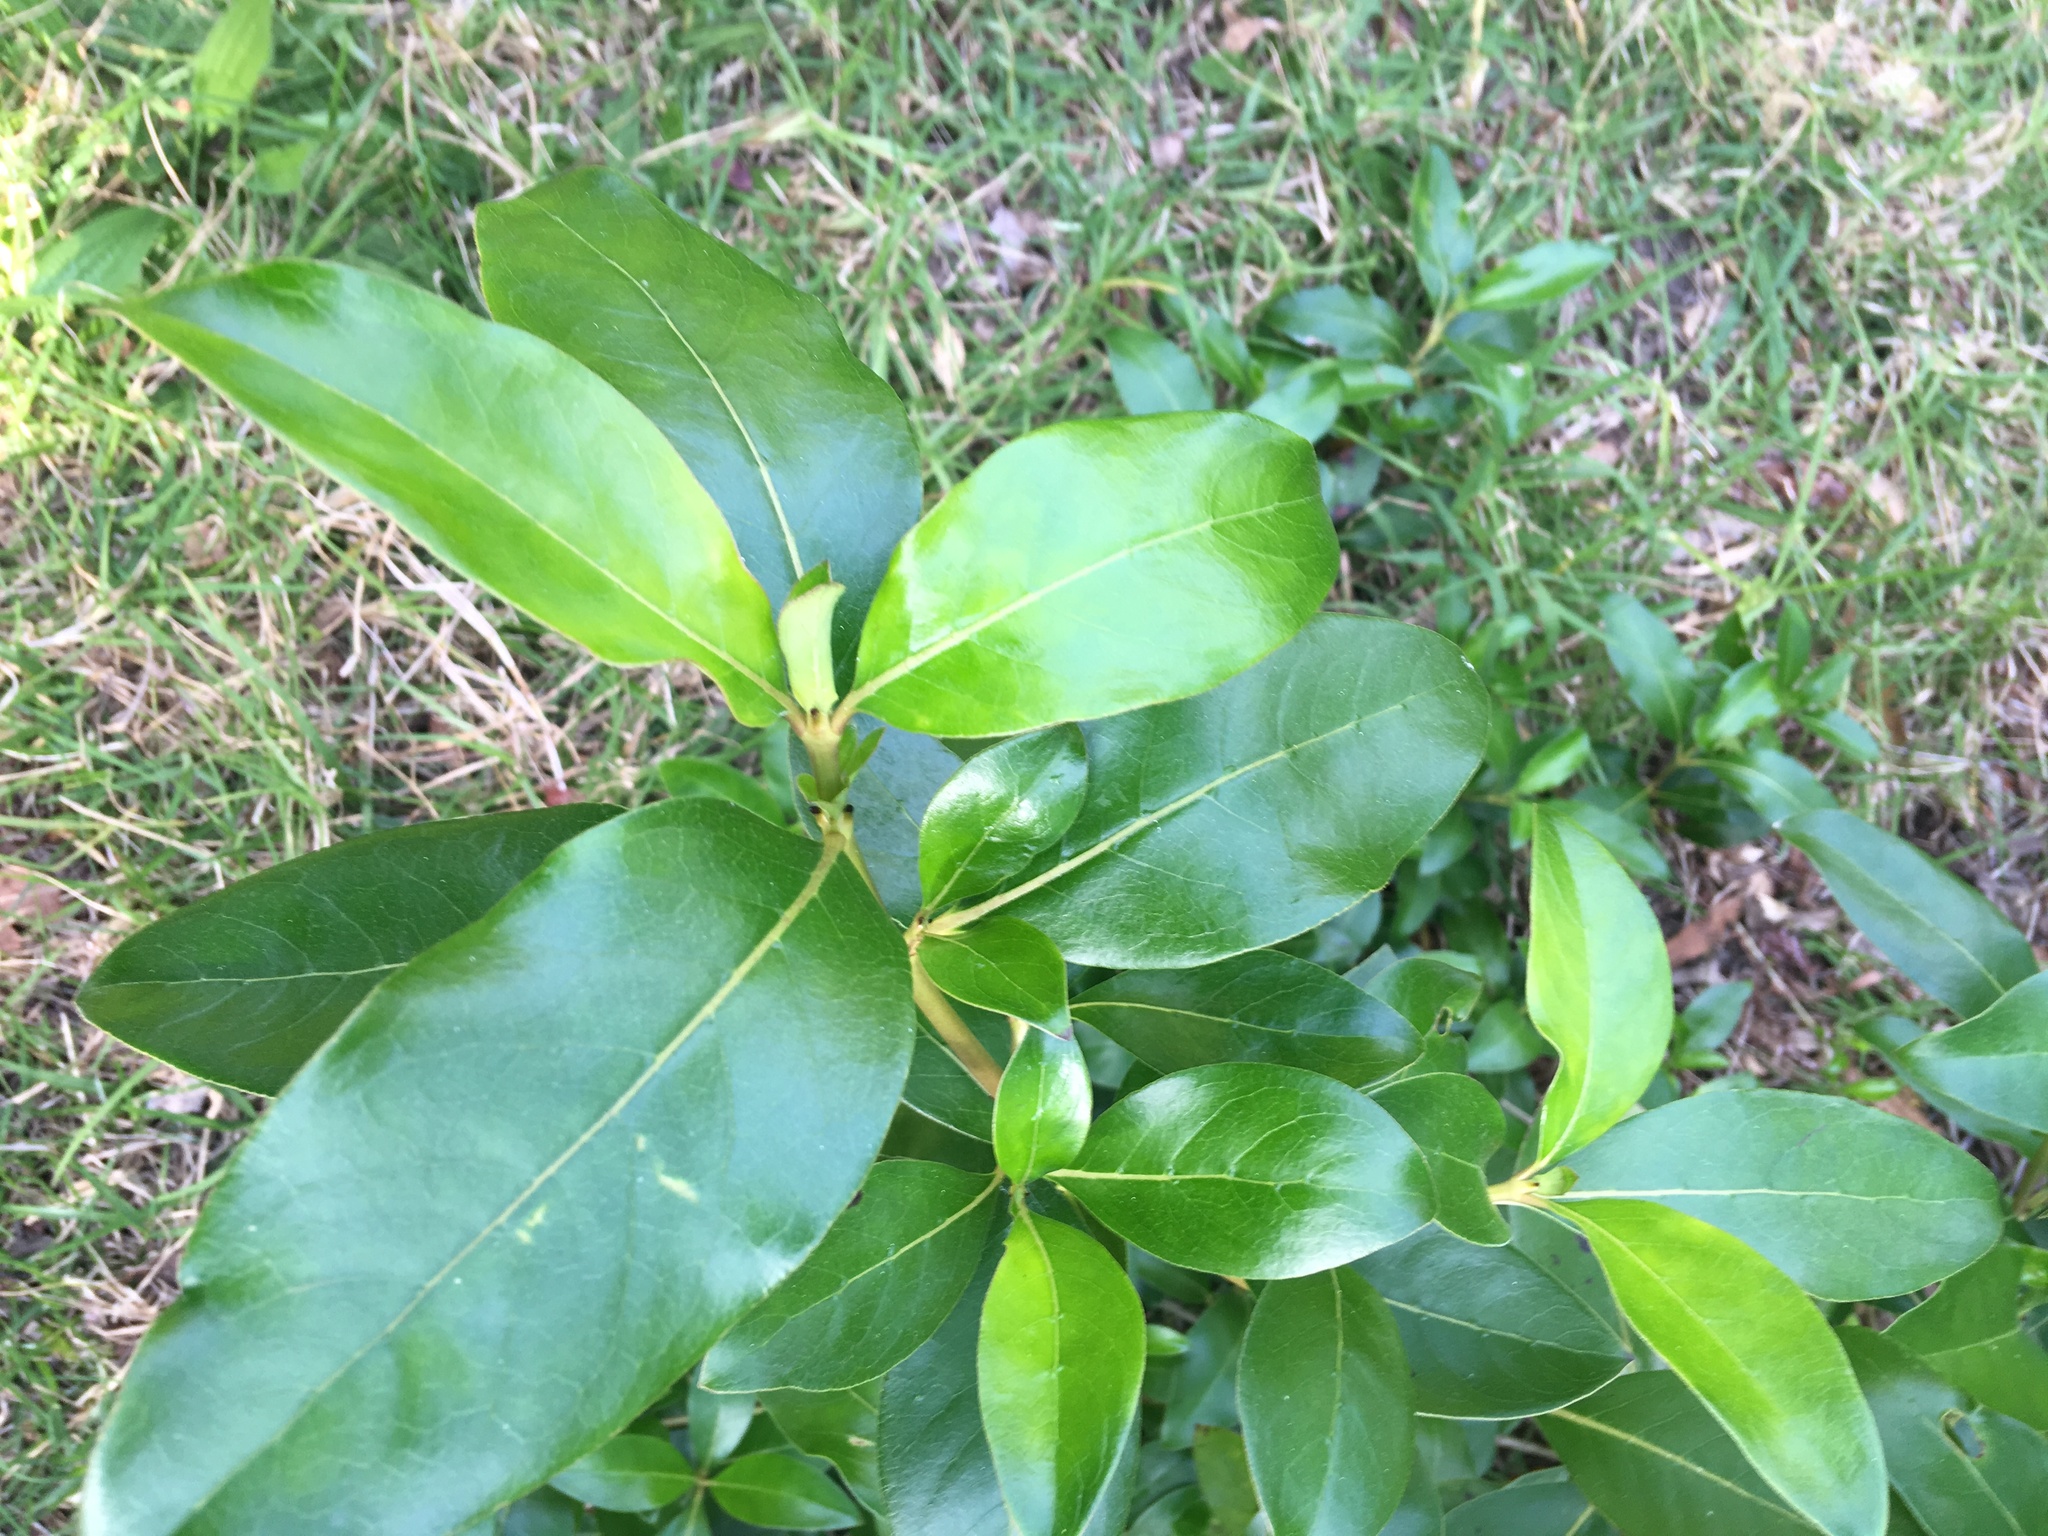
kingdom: Plantae
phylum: Tracheophyta
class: Magnoliopsida
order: Gentianales
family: Rubiaceae
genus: Coprosma
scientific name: Coprosma robusta
